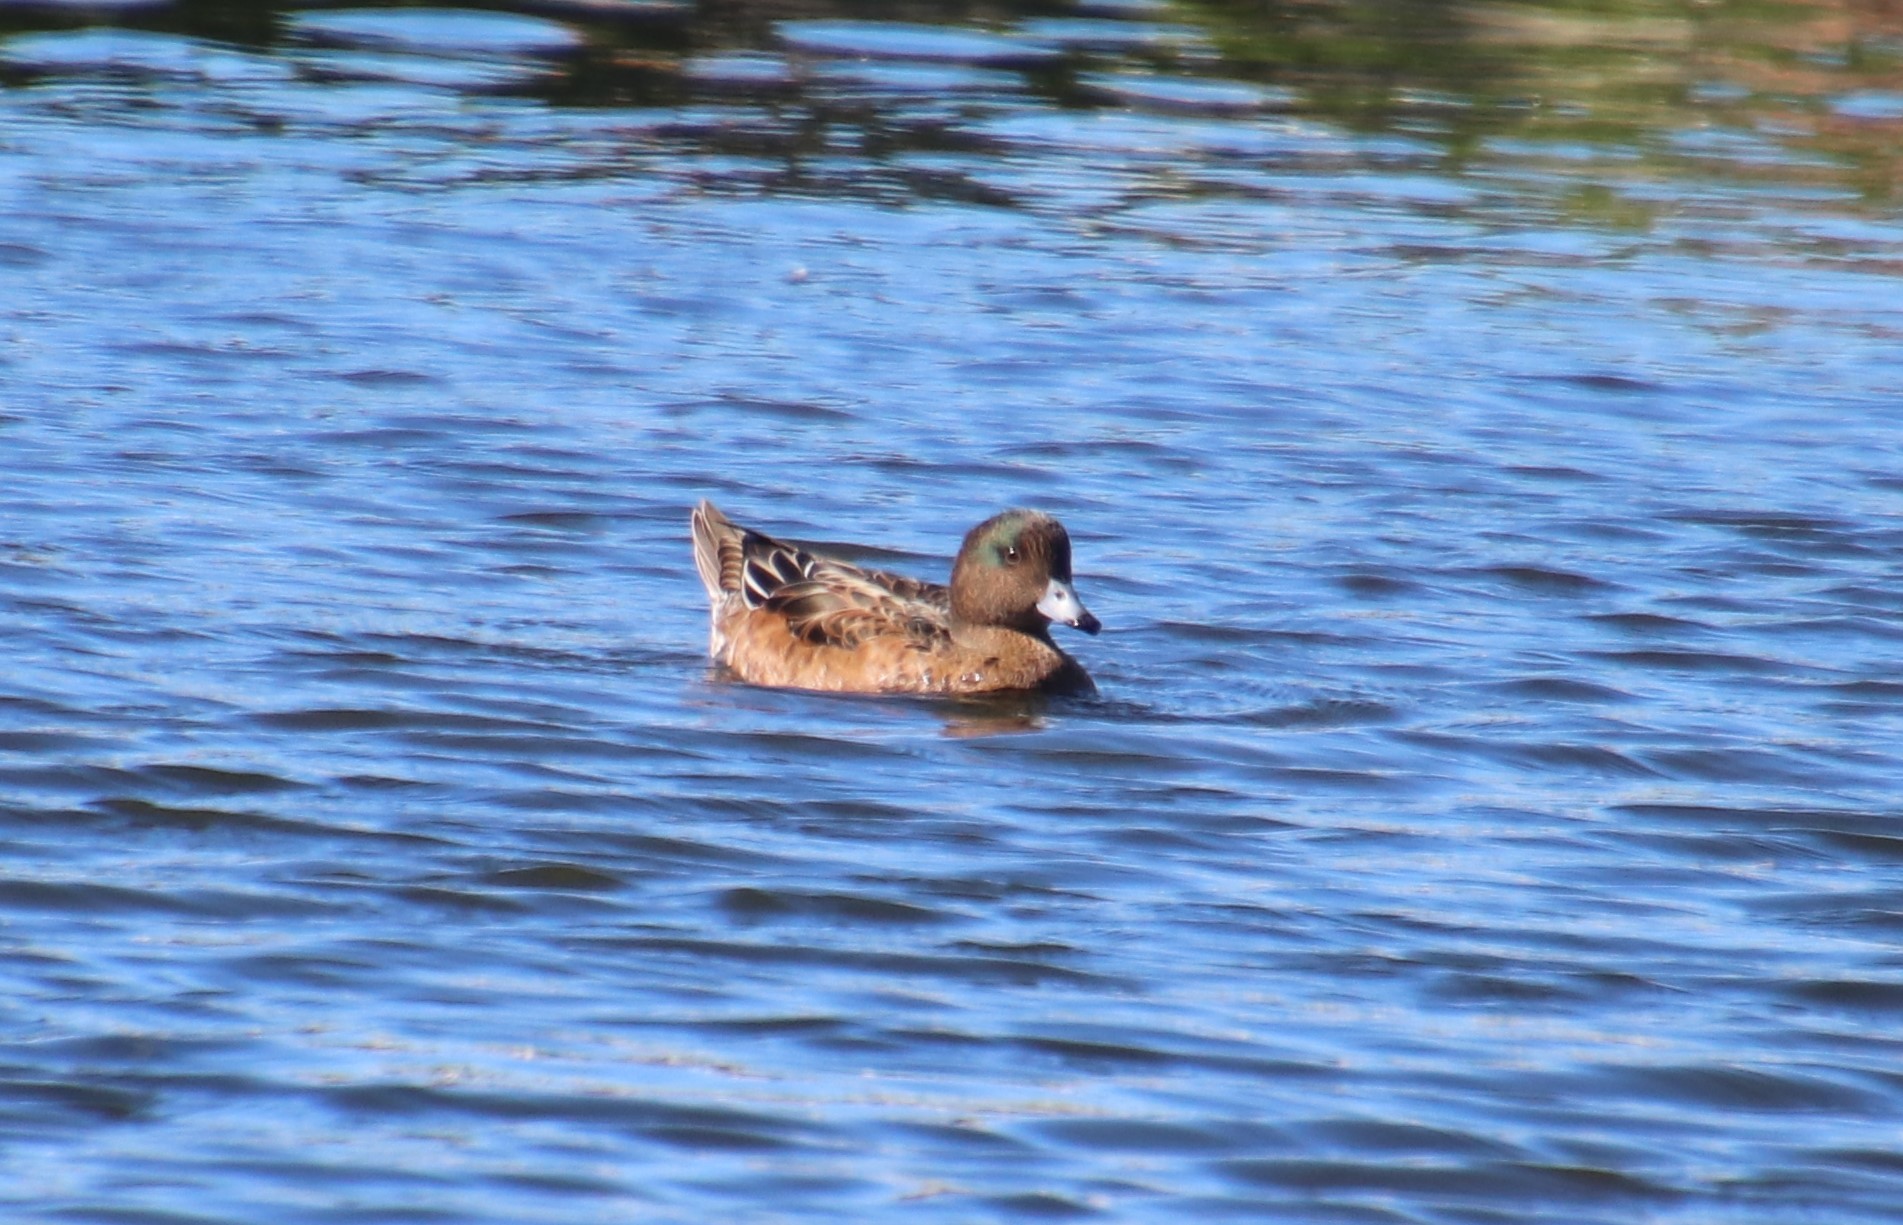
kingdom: Animalia
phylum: Chordata
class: Aves
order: Anseriformes
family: Anatidae
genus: Mareca
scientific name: Mareca penelope
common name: Eurasian wigeon
